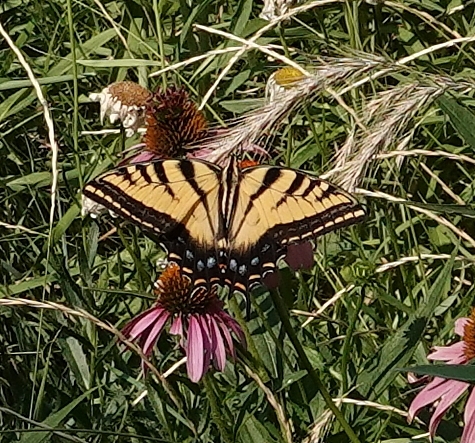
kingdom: Animalia
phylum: Arthropoda
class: Insecta
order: Lepidoptera
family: Papilionidae
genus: Papilio
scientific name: Papilio multicaudata
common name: Two-tailed tiger swallowtail
